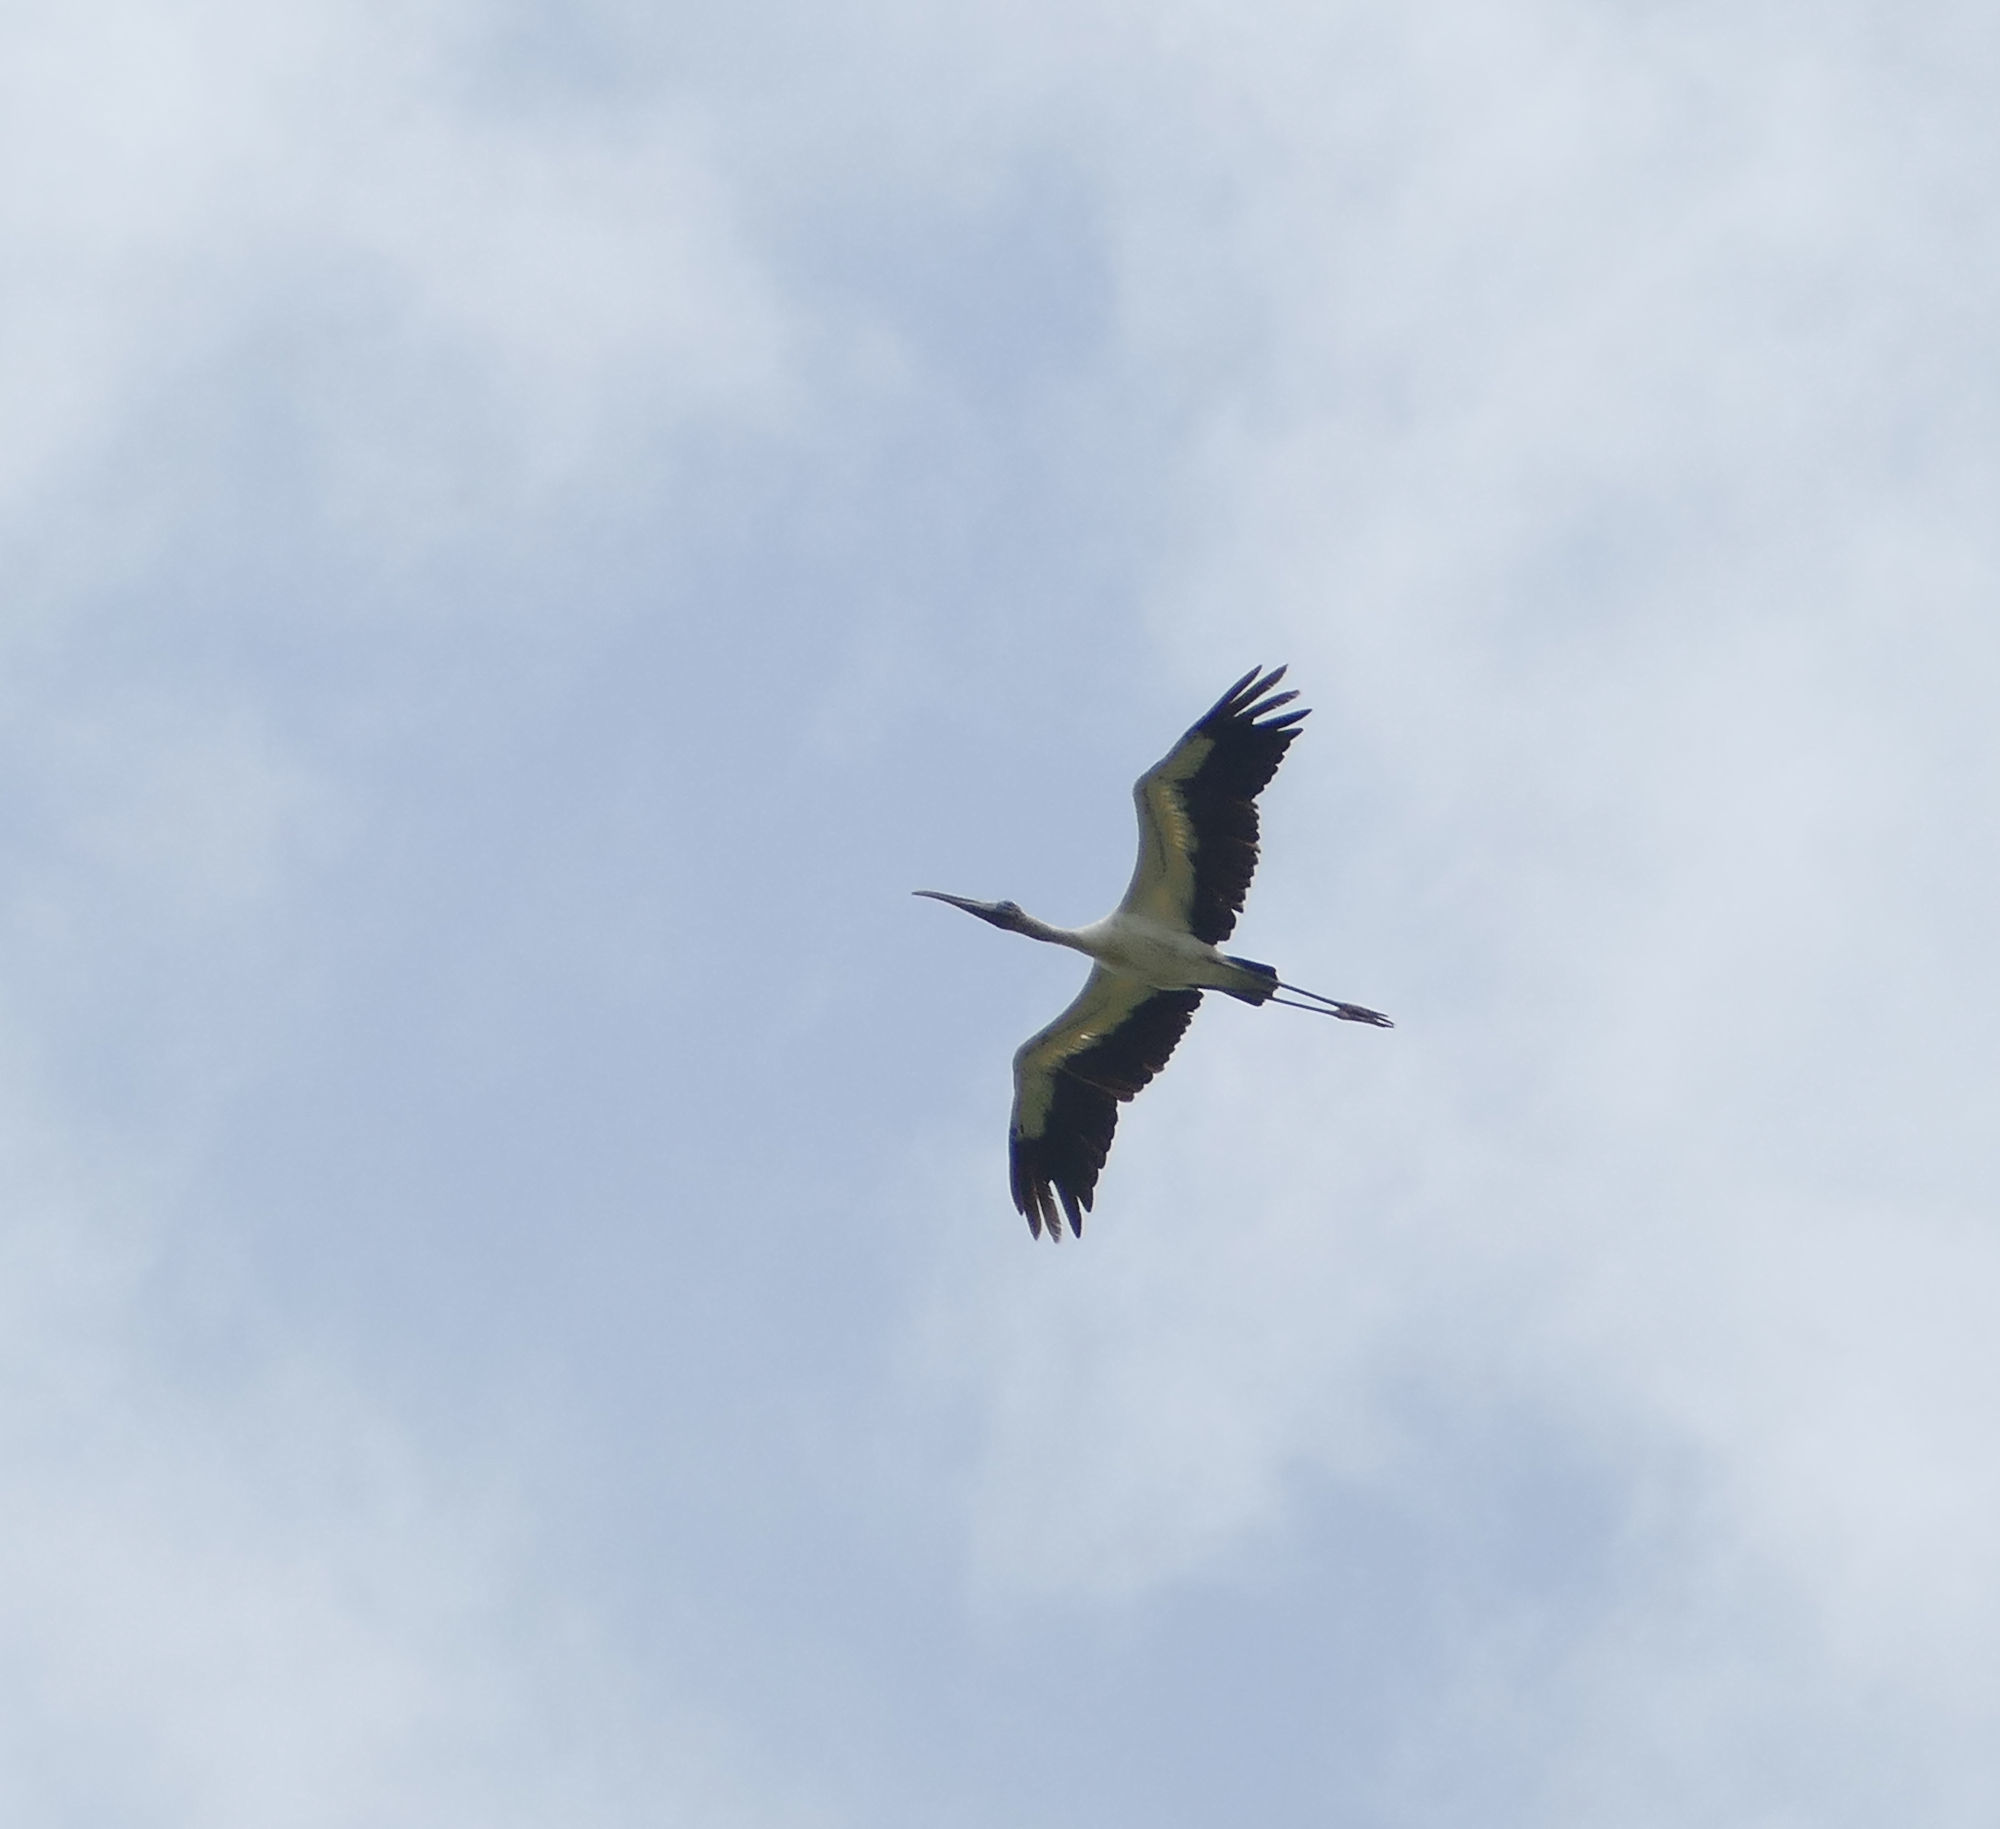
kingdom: Animalia
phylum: Chordata
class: Aves
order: Ciconiiformes
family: Ciconiidae
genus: Mycteria
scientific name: Mycteria americana
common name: Wood stork
